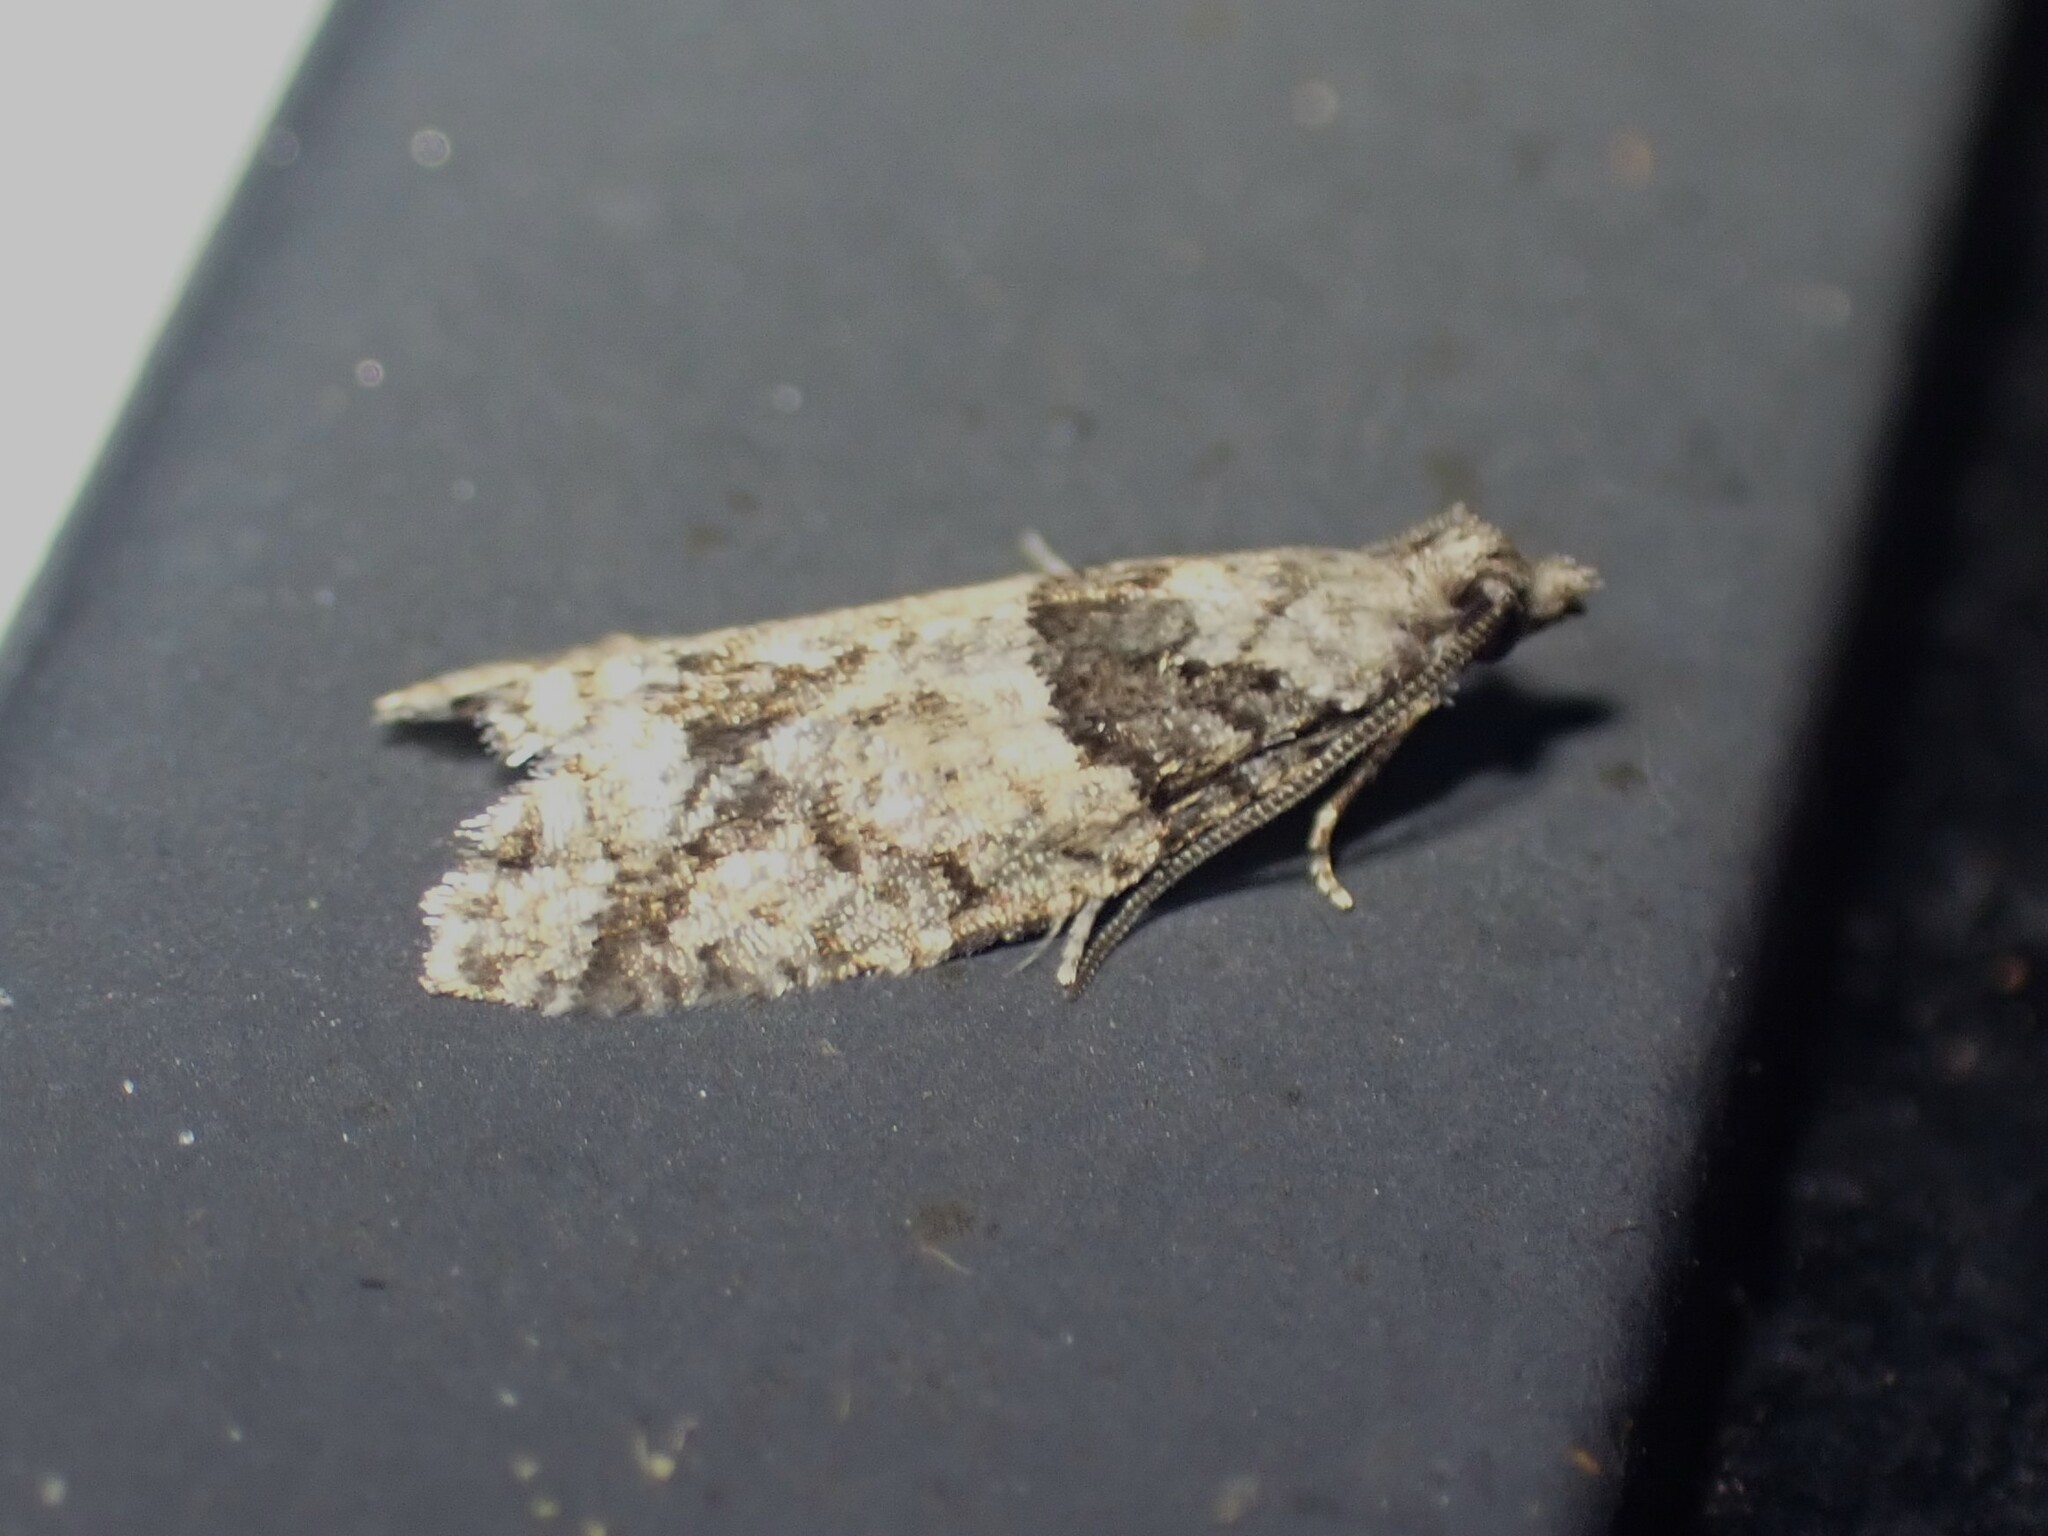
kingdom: Animalia
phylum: Arthropoda
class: Insecta
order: Lepidoptera
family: Tortricidae
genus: Epinotia
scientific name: Epinotia radicana
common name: Red-striped needleworm moth
